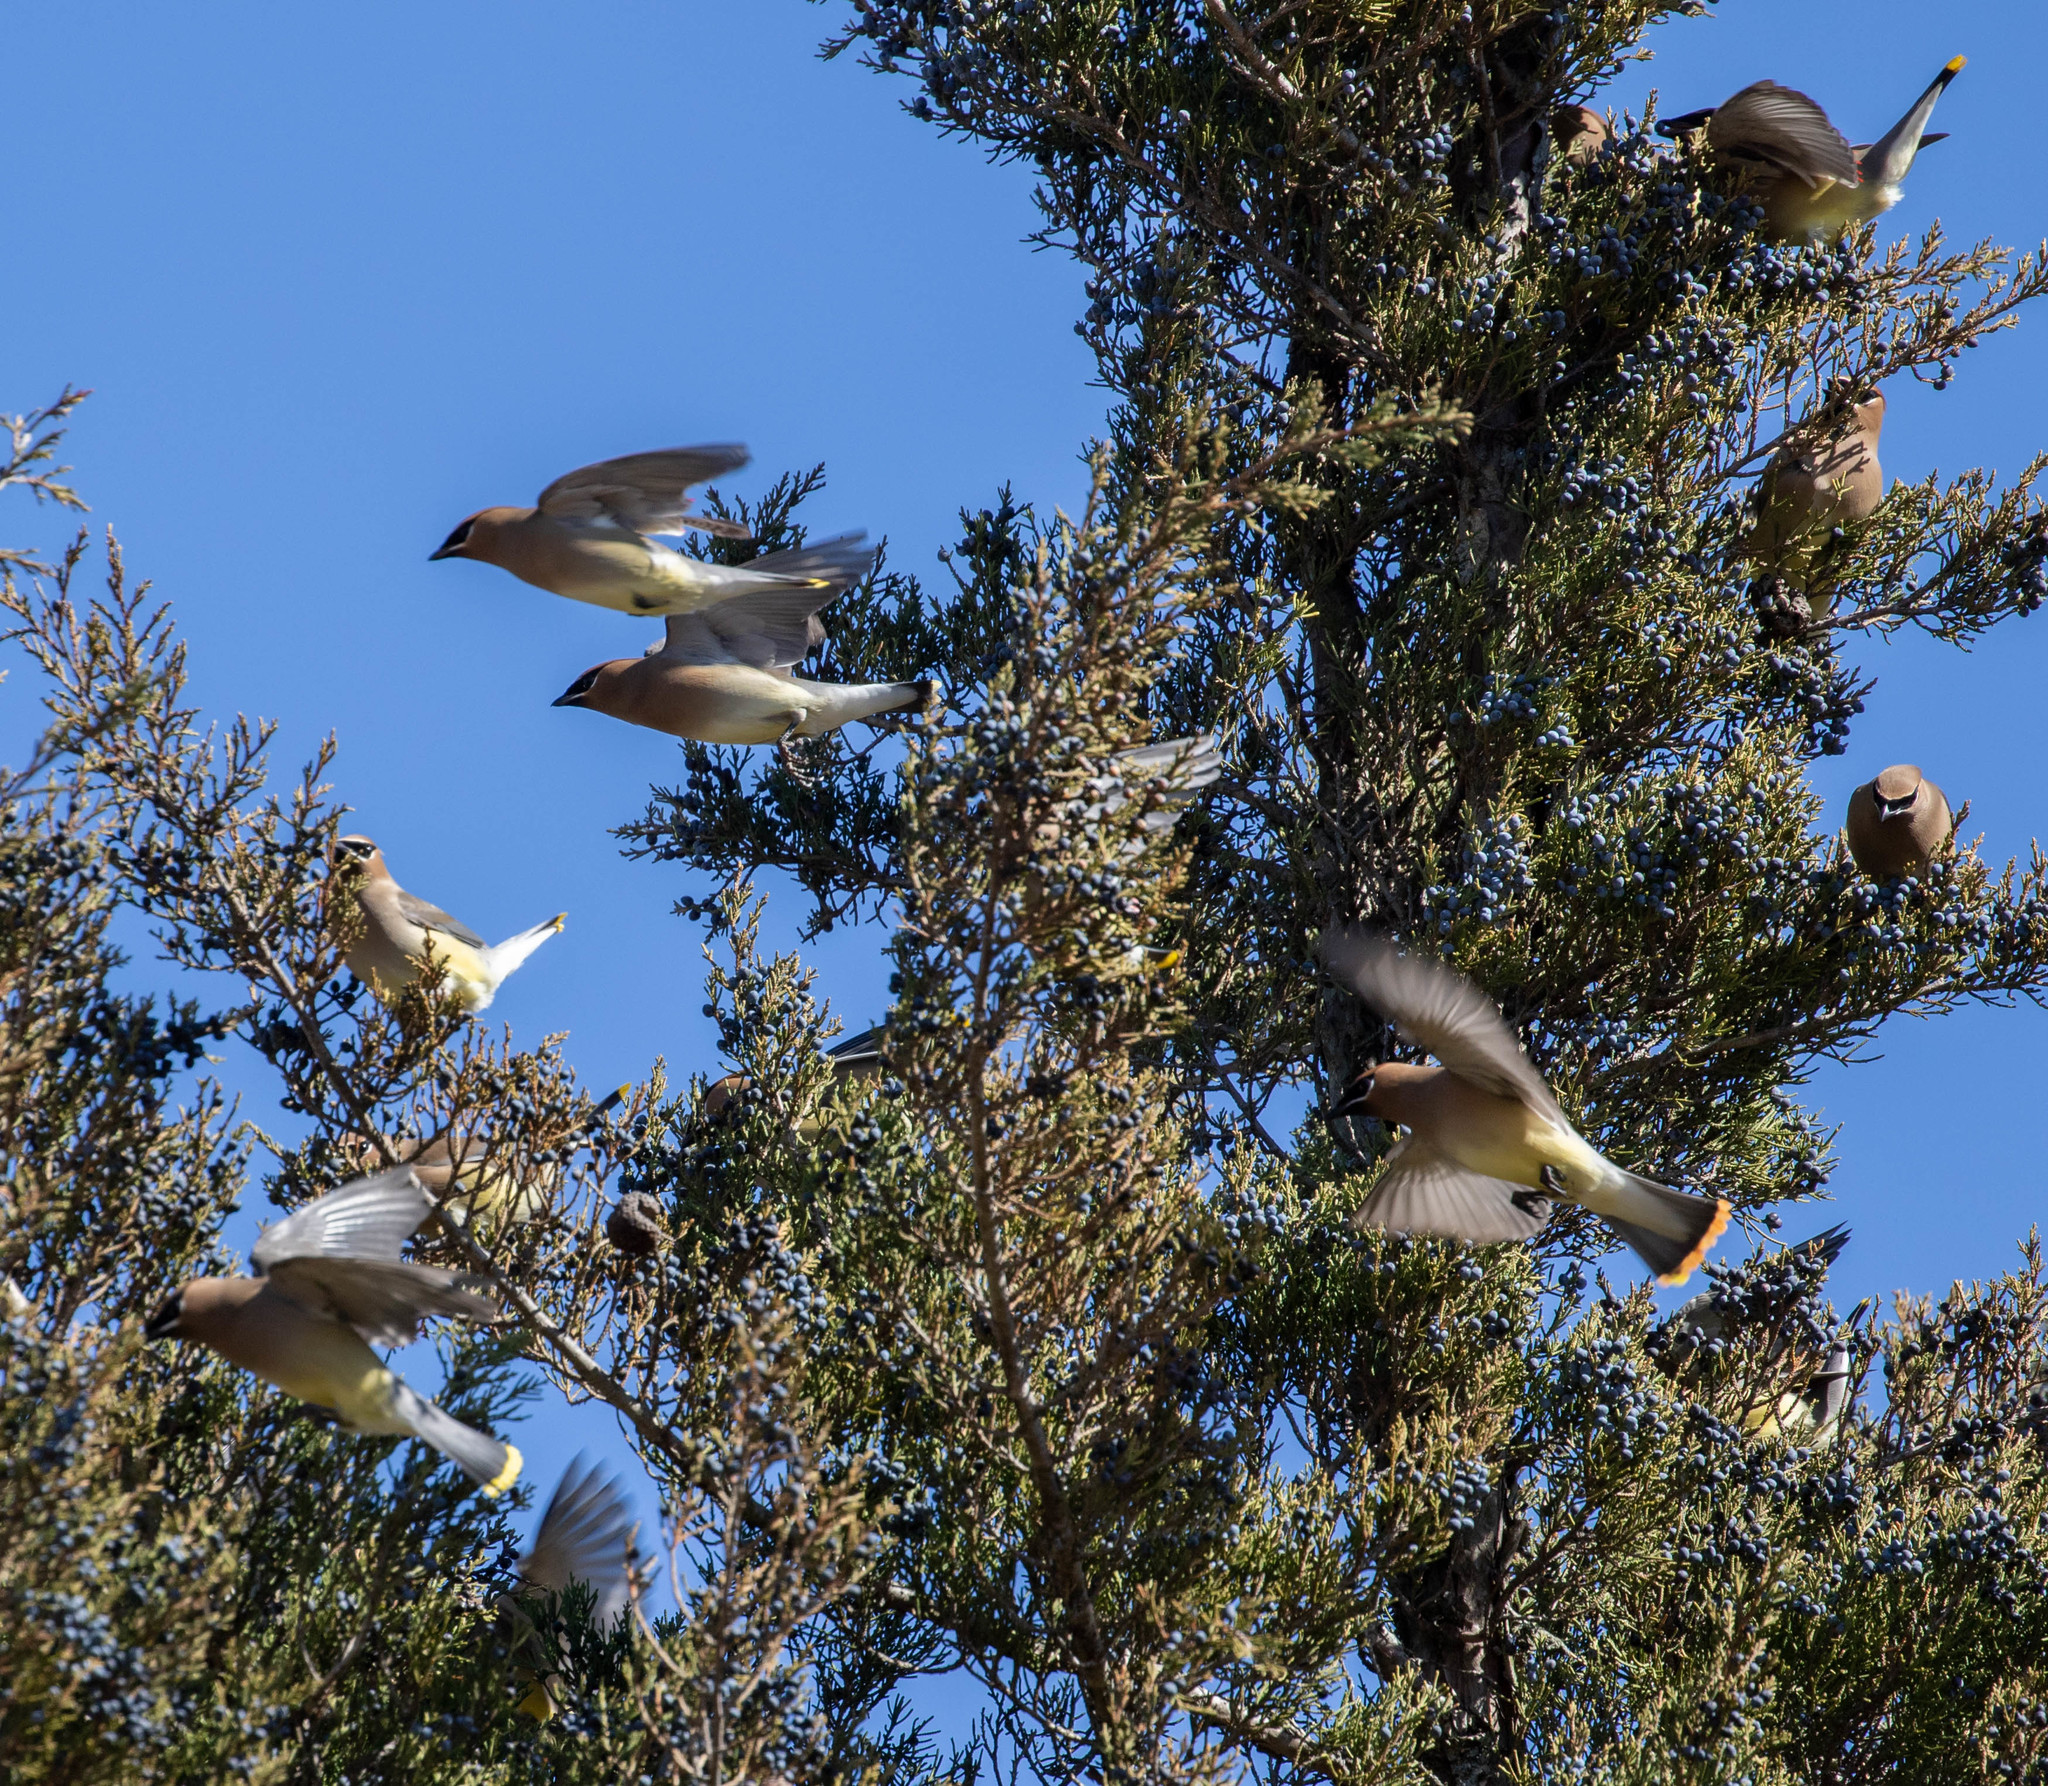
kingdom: Animalia
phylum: Chordata
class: Aves
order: Passeriformes
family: Bombycillidae
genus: Bombycilla
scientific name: Bombycilla cedrorum
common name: Cedar waxwing
